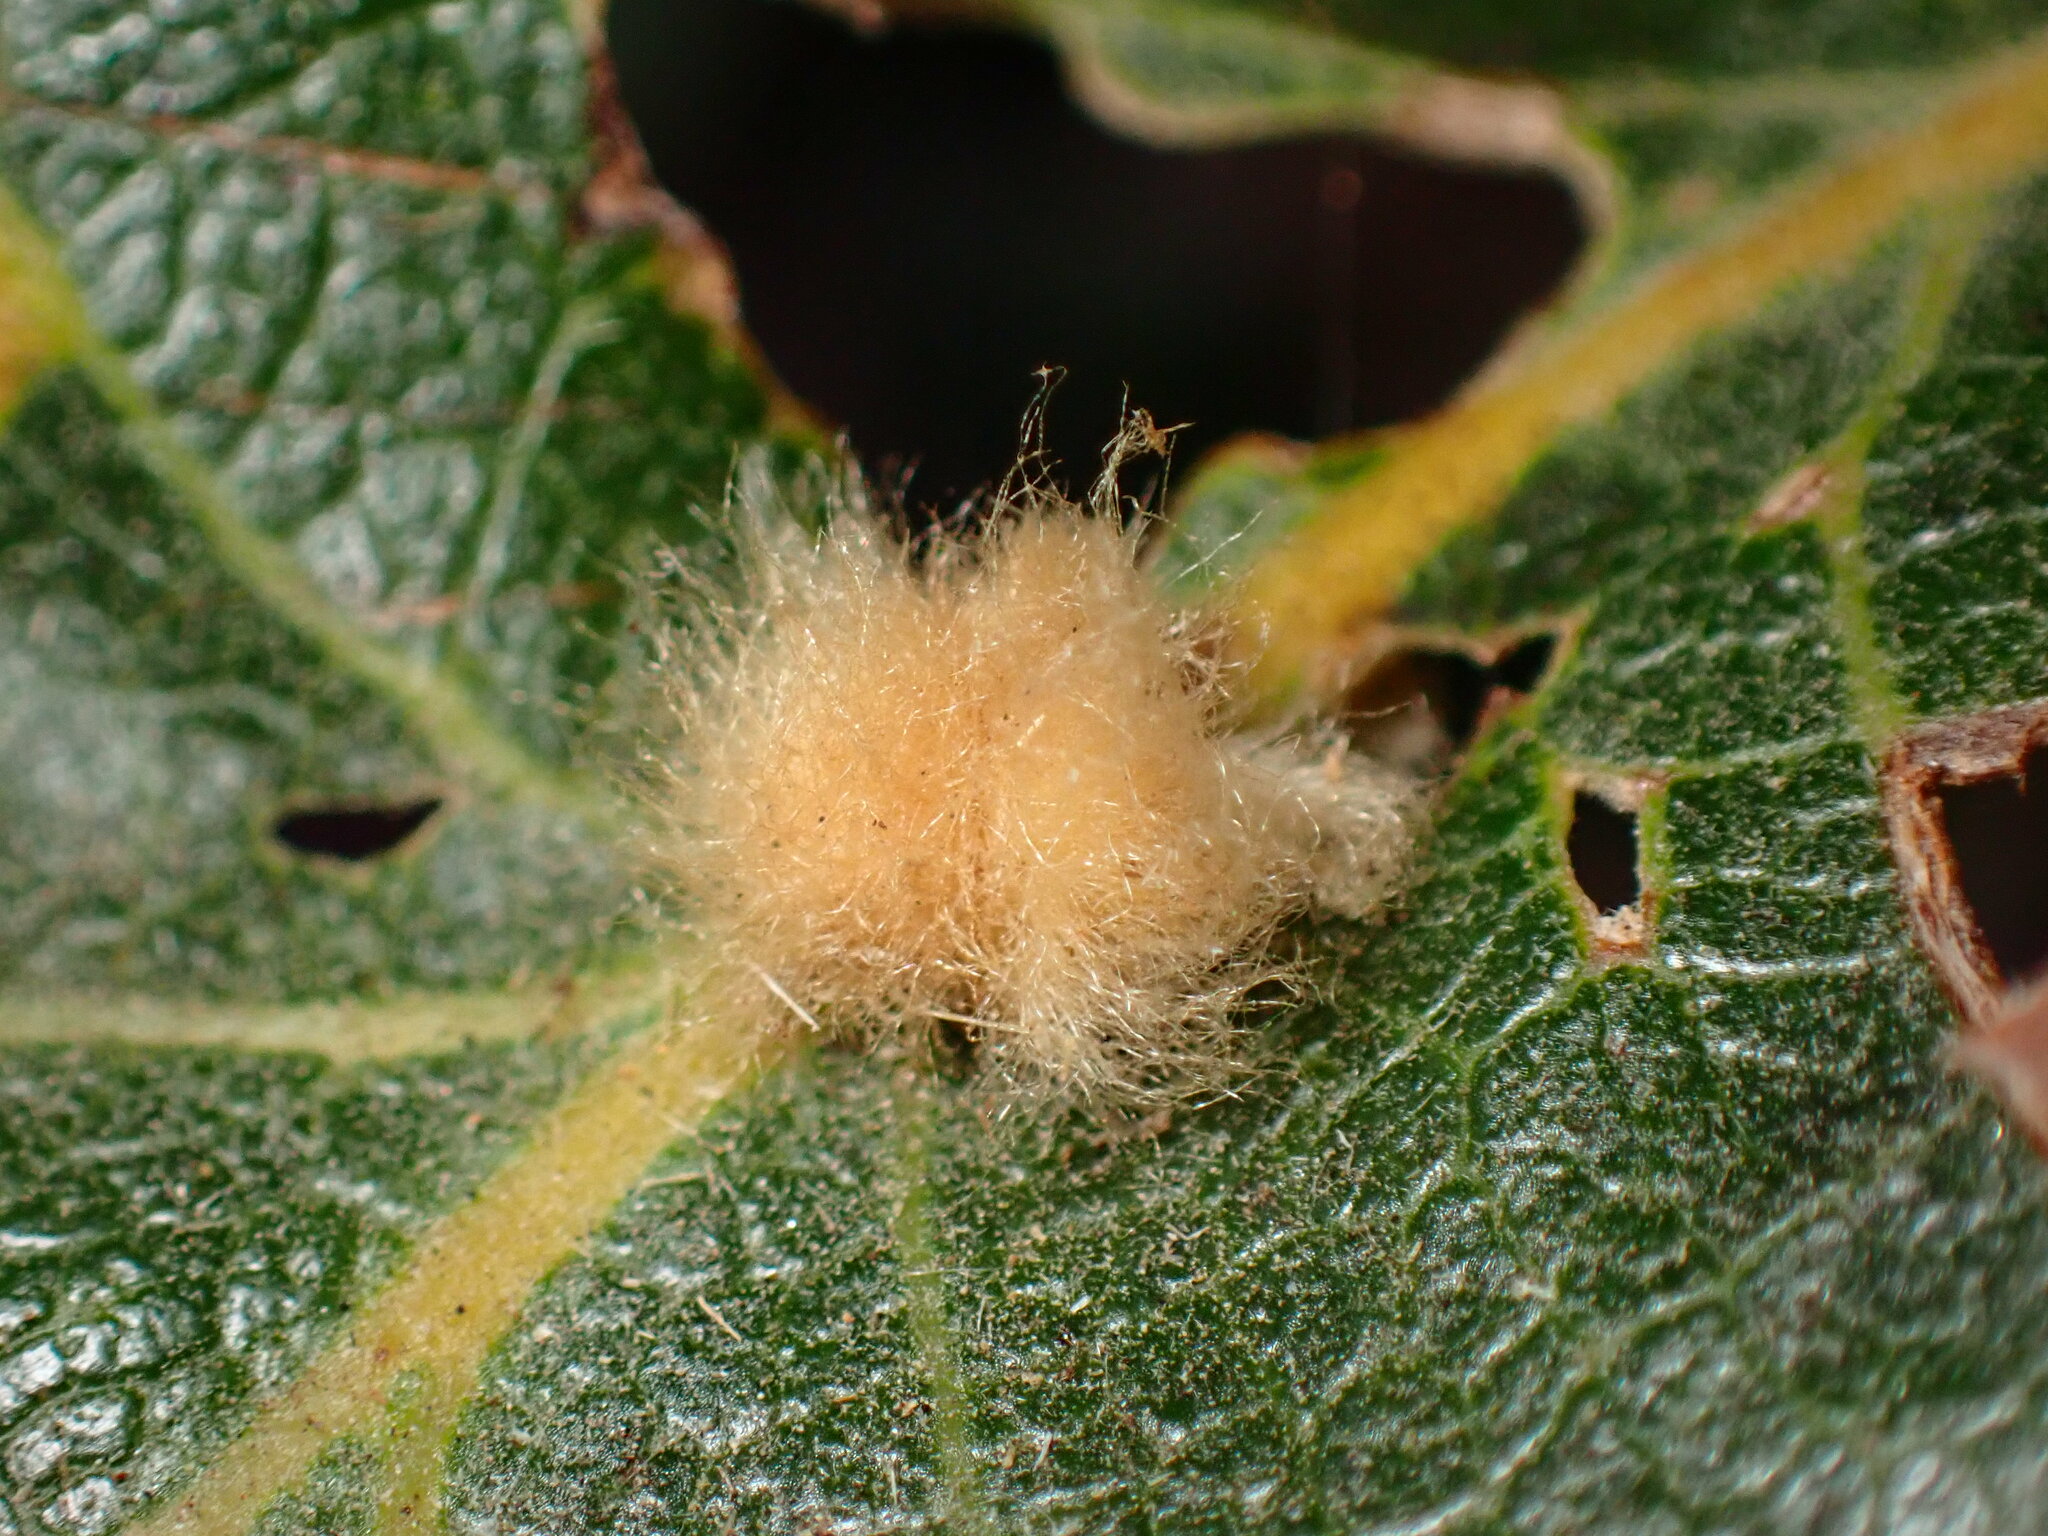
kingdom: Animalia
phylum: Arthropoda
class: Insecta
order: Hymenoptera
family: Cynipidae
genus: Andricus
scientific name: Andricus Druon fullawayi
